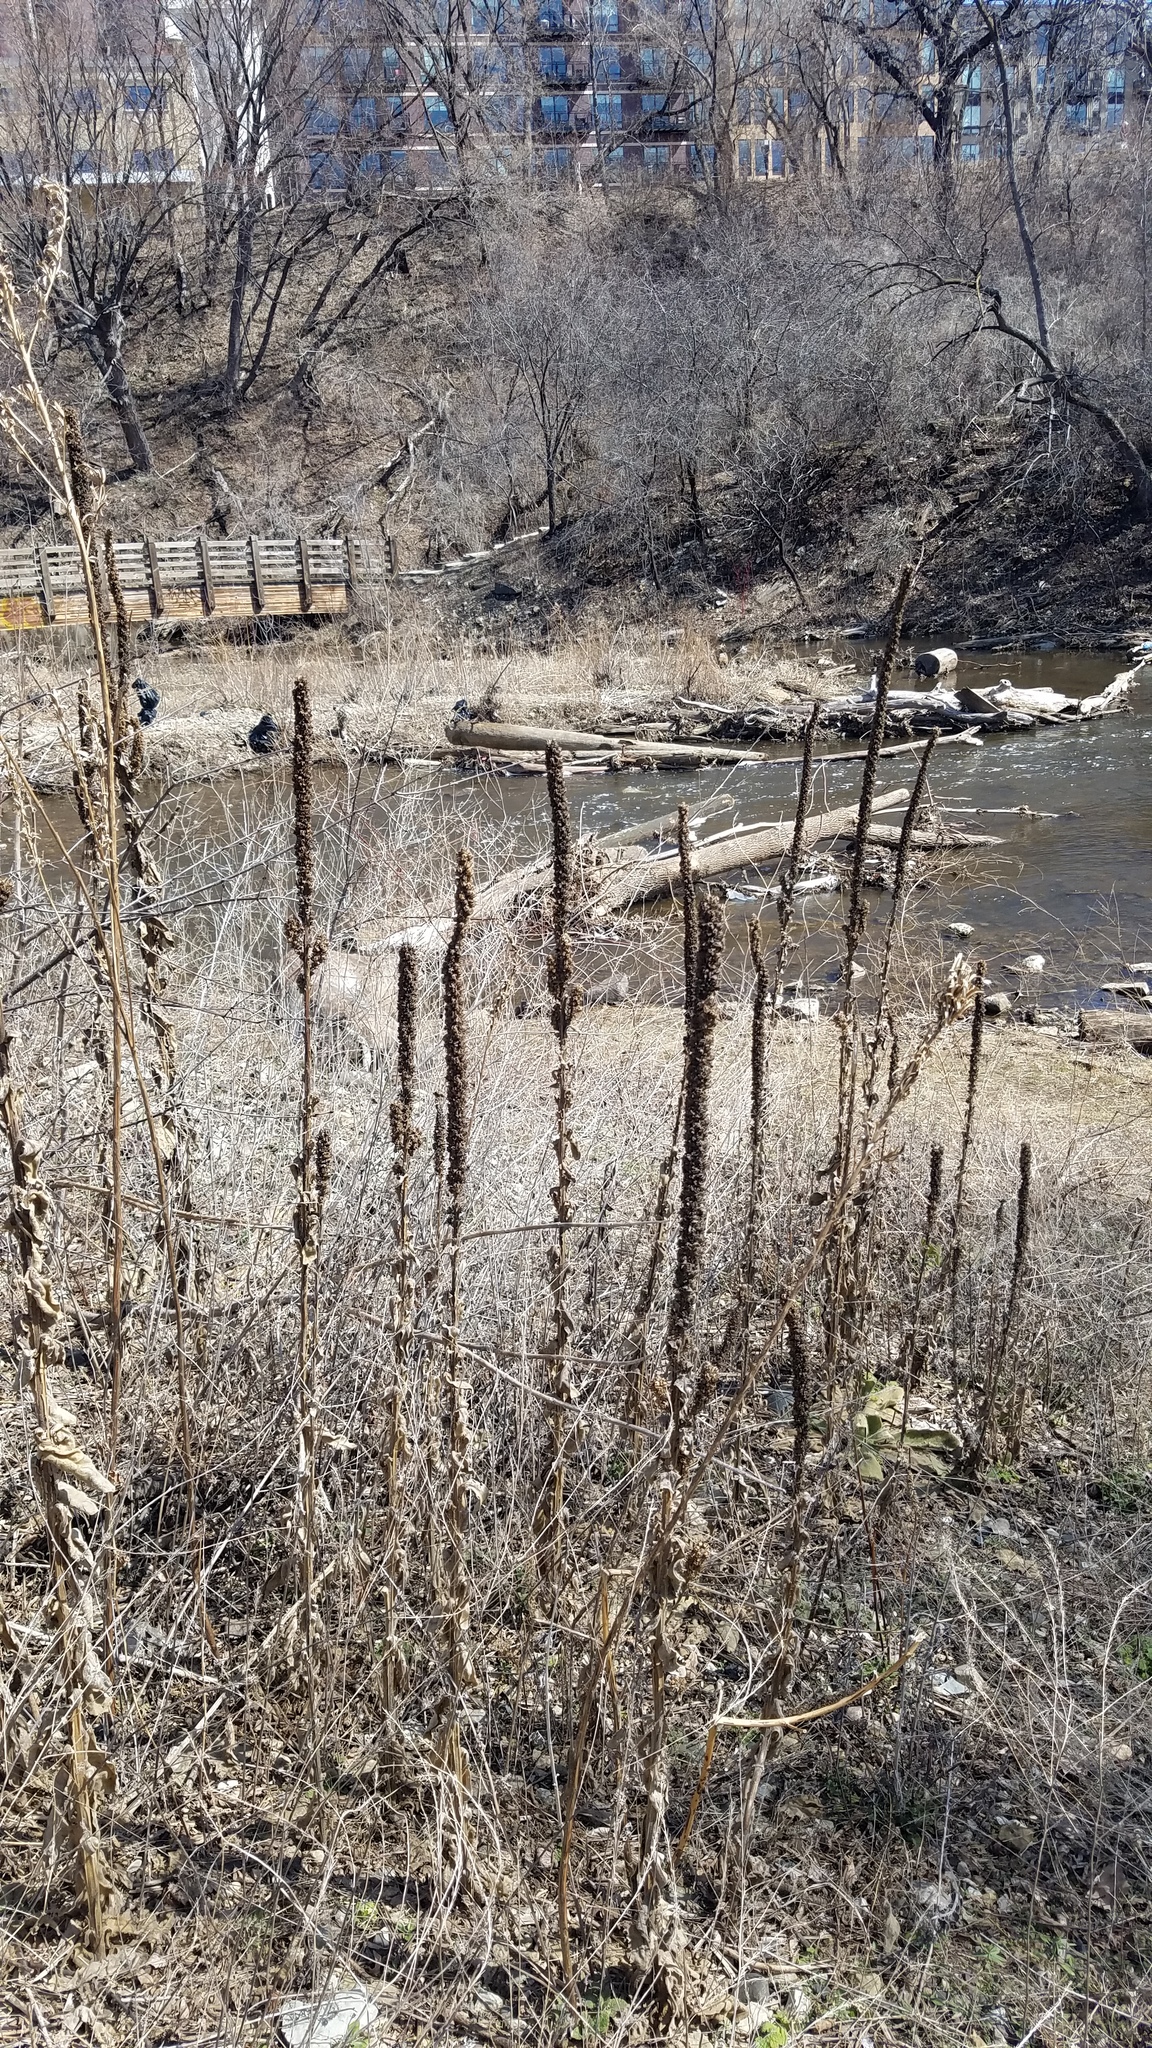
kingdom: Plantae
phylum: Tracheophyta
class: Magnoliopsida
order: Lamiales
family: Scrophulariaceae
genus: Verbascum
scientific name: Verbascum thapsus
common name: Common mullein
